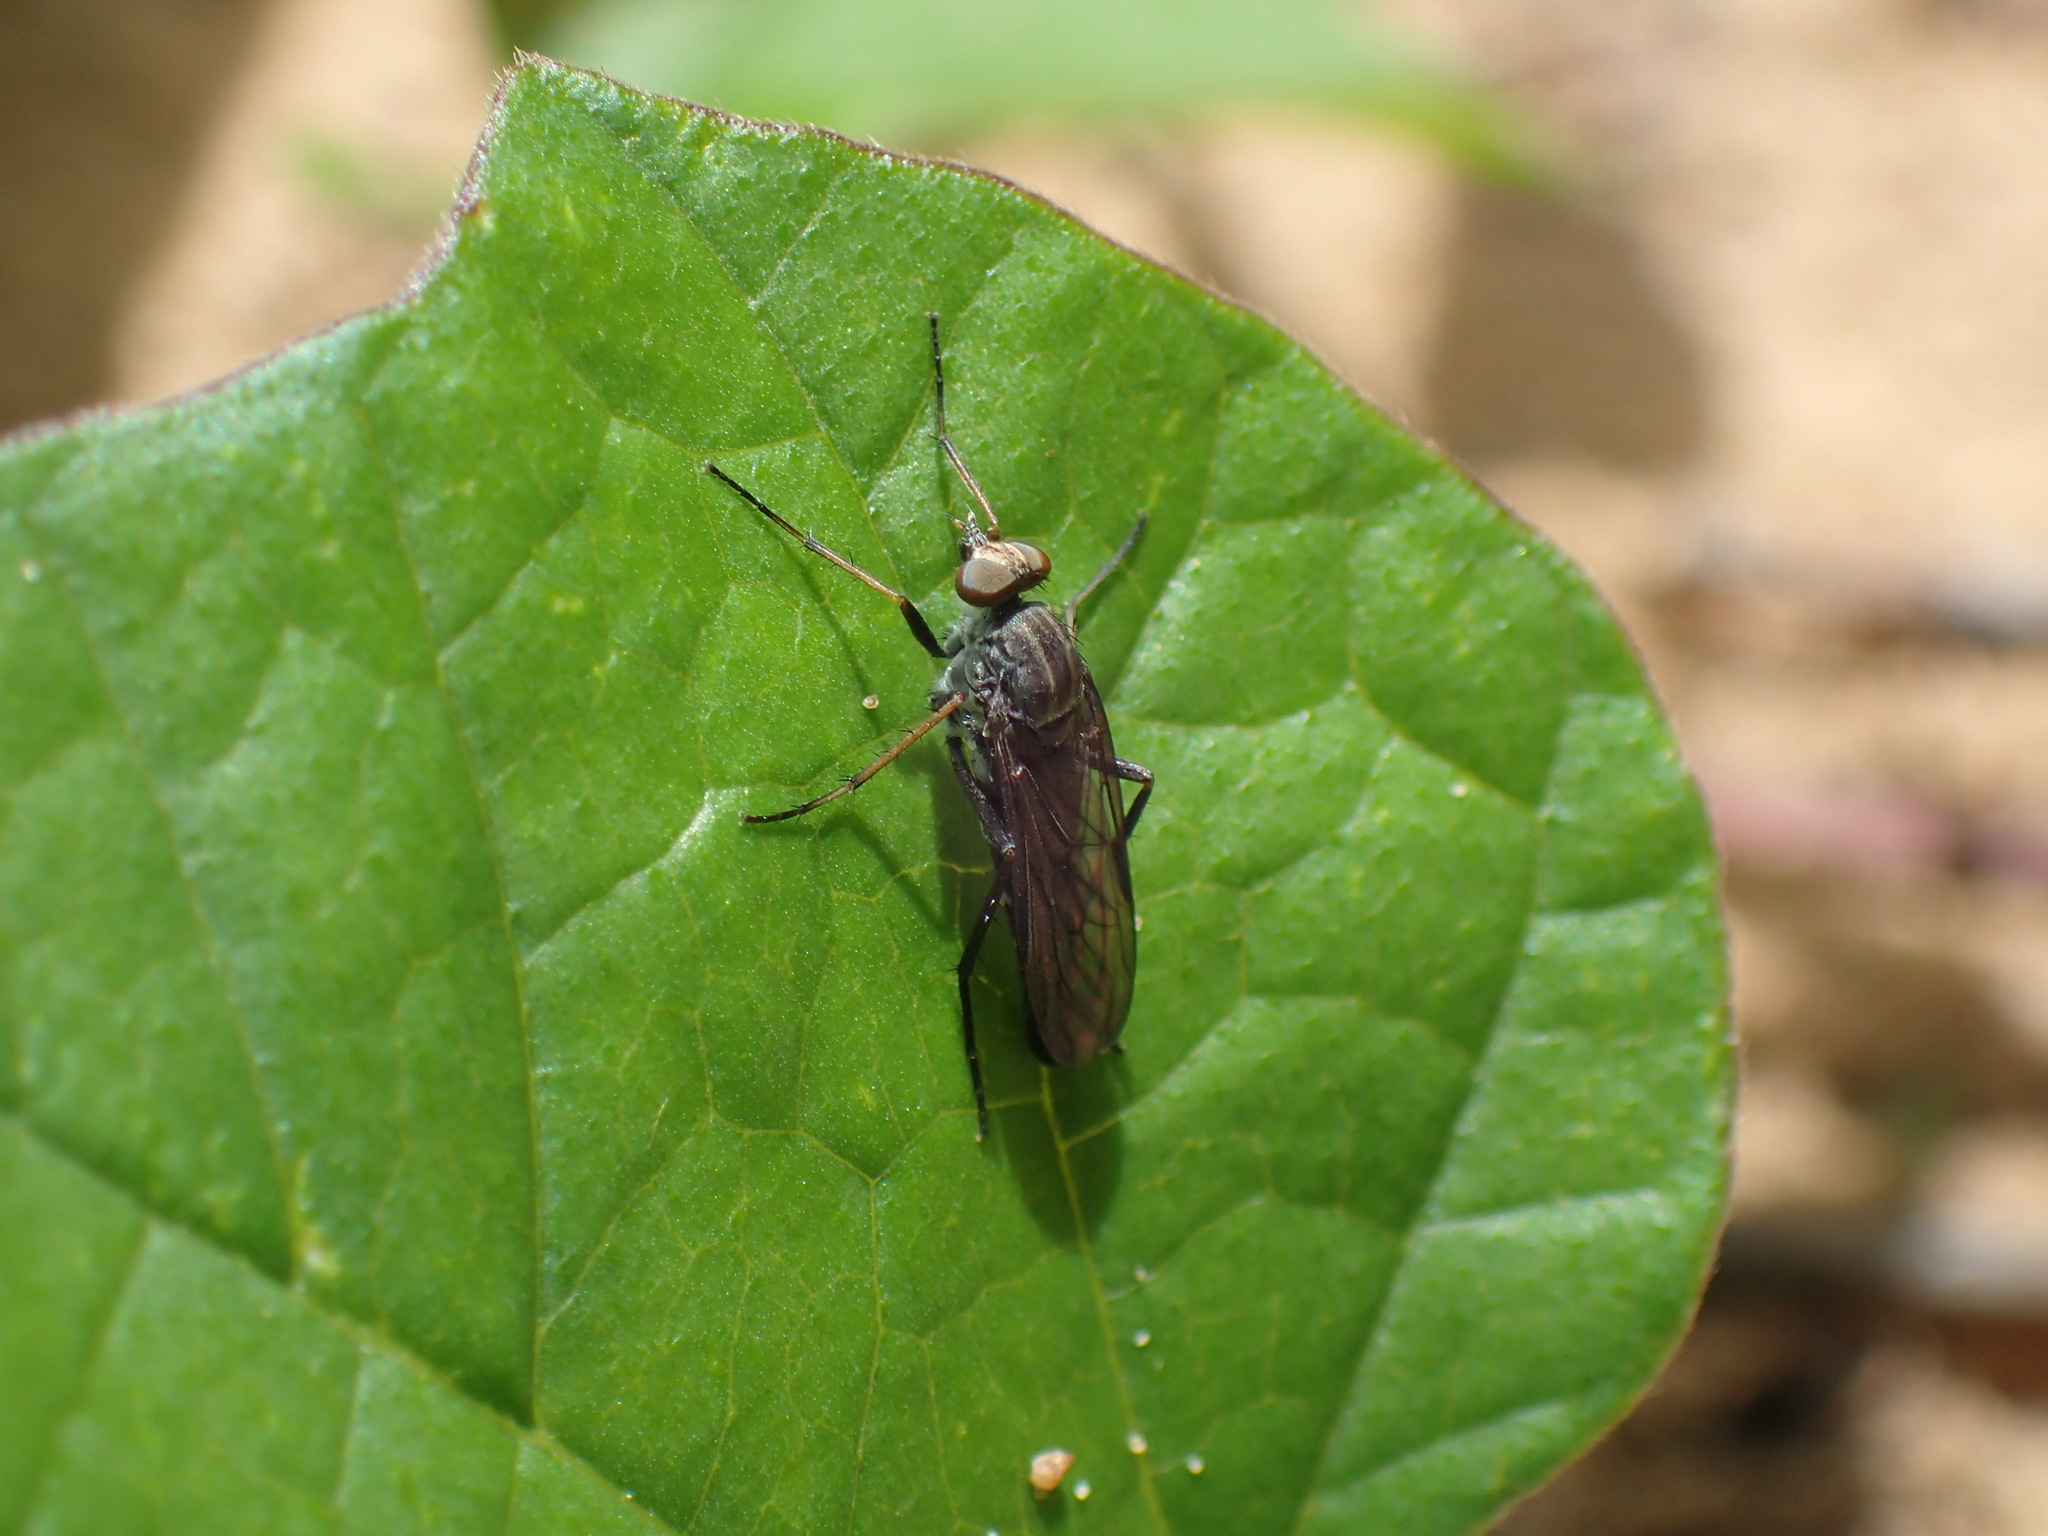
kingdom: Animalia
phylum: Arthropoda
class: Insecta
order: Diptera
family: Therevidae
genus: Stenosathe
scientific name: Stenosathe brachycera
